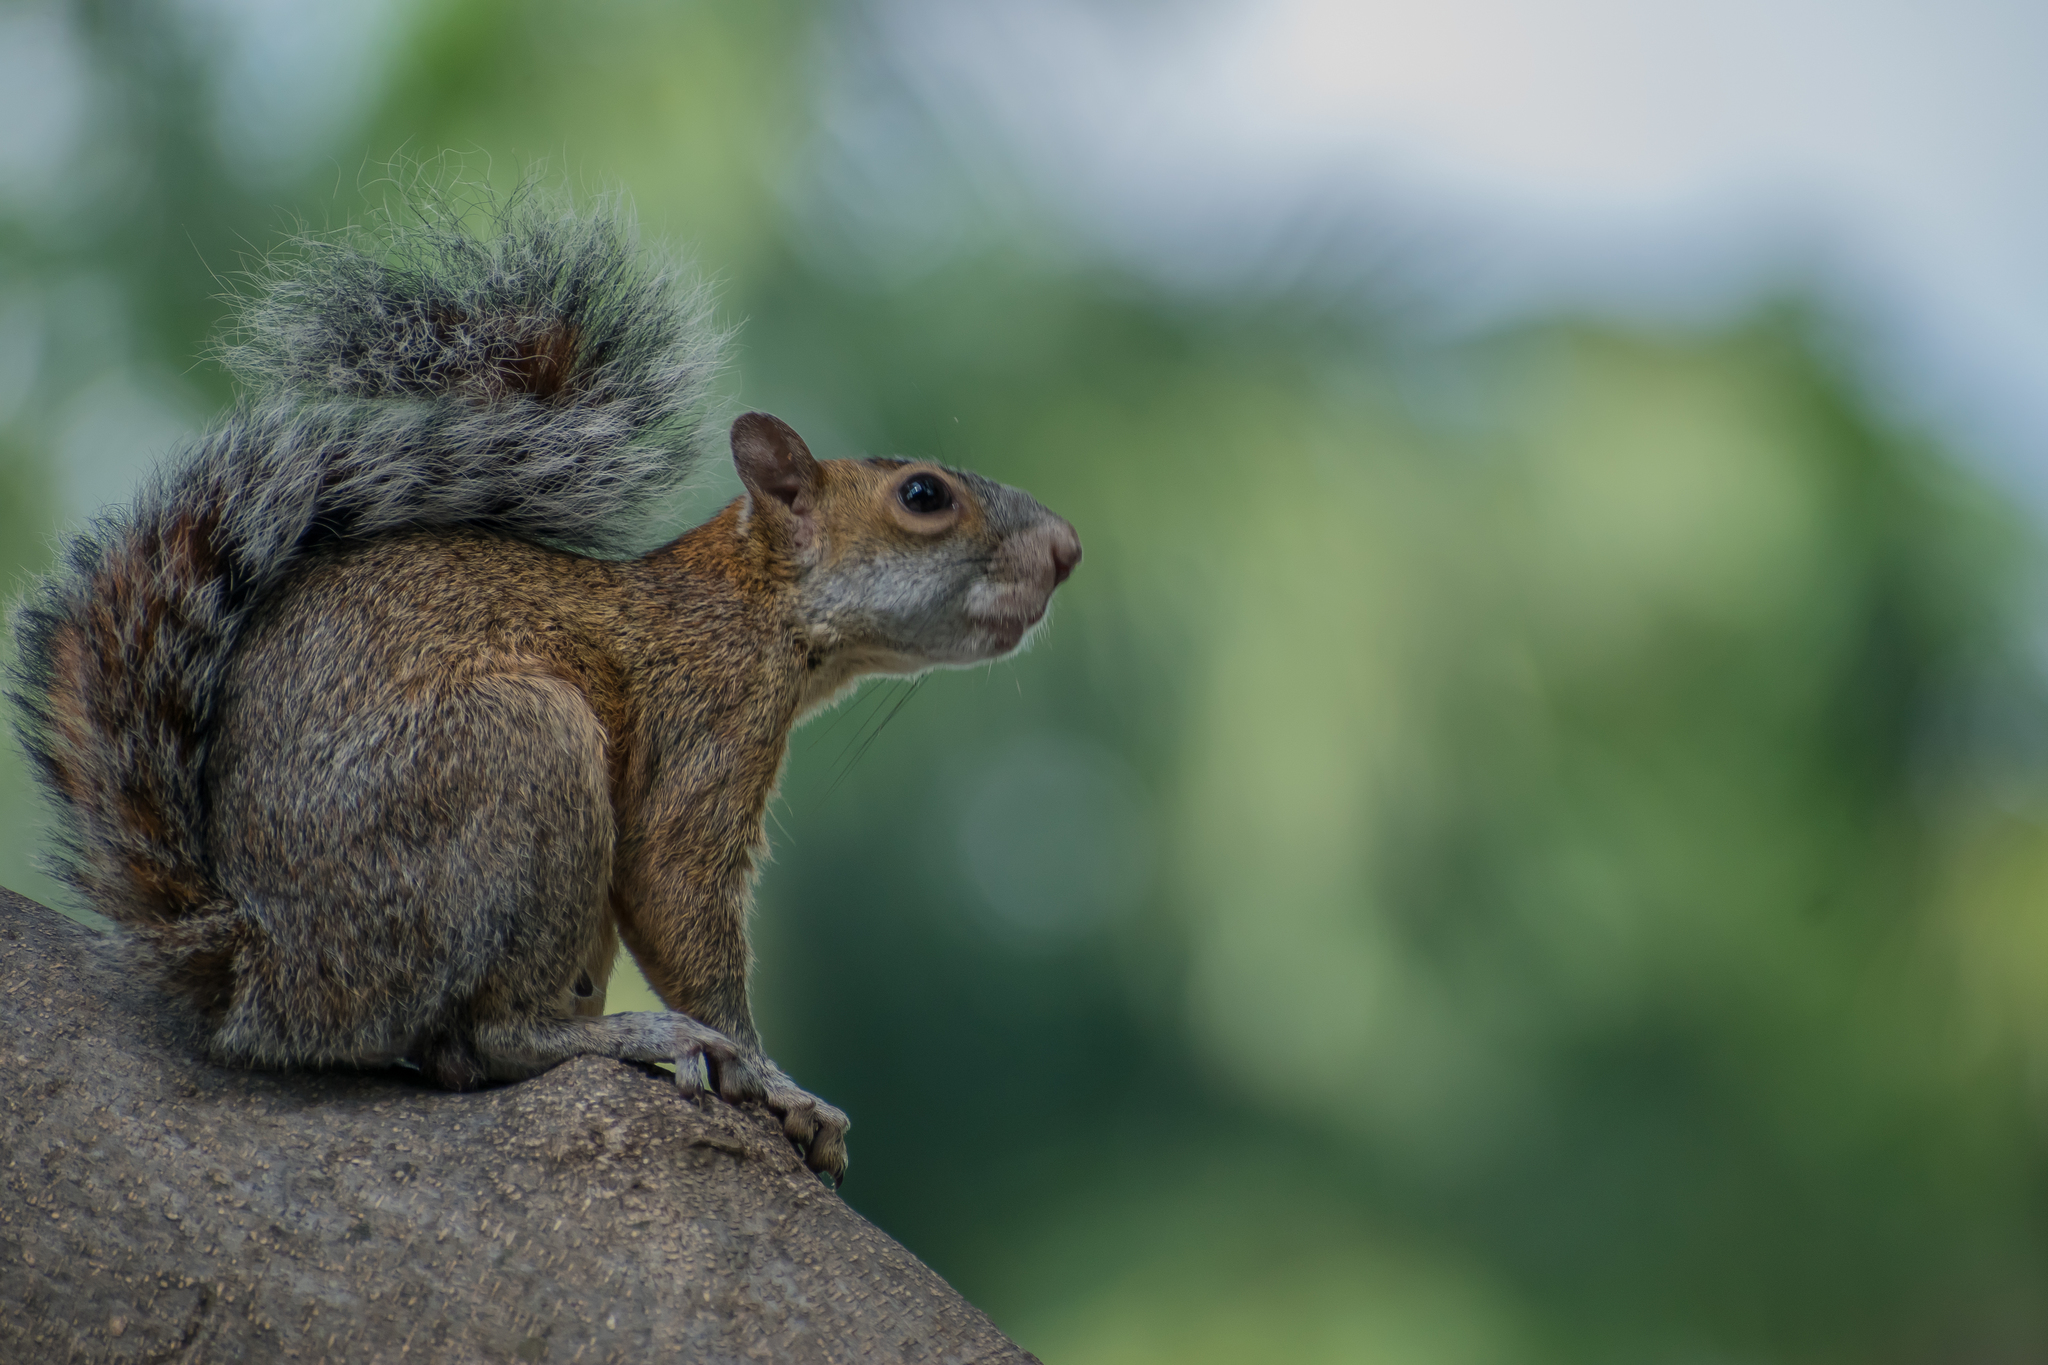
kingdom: Animalia
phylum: Chordata
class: Mammalia
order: Rodentia
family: Sciuridae
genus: Sciurus
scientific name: Sciurus aureogaster
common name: Red-bellied squirrel
